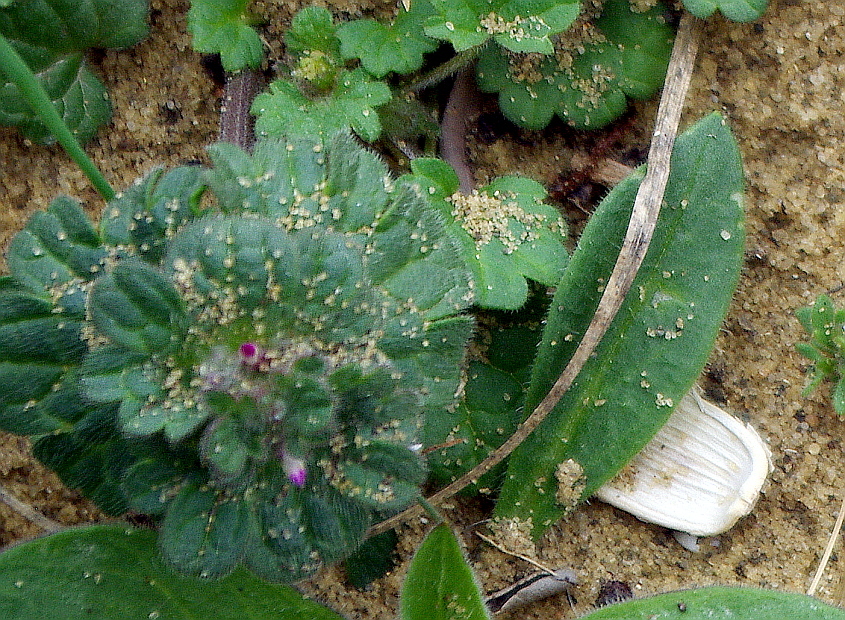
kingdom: Plantae
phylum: Tracheophyta
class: Magnoliopsida
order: Lamiales
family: Lamiaceae
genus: Lamium
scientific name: Lamium amplexicaule
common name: Henbit dead-nettle
